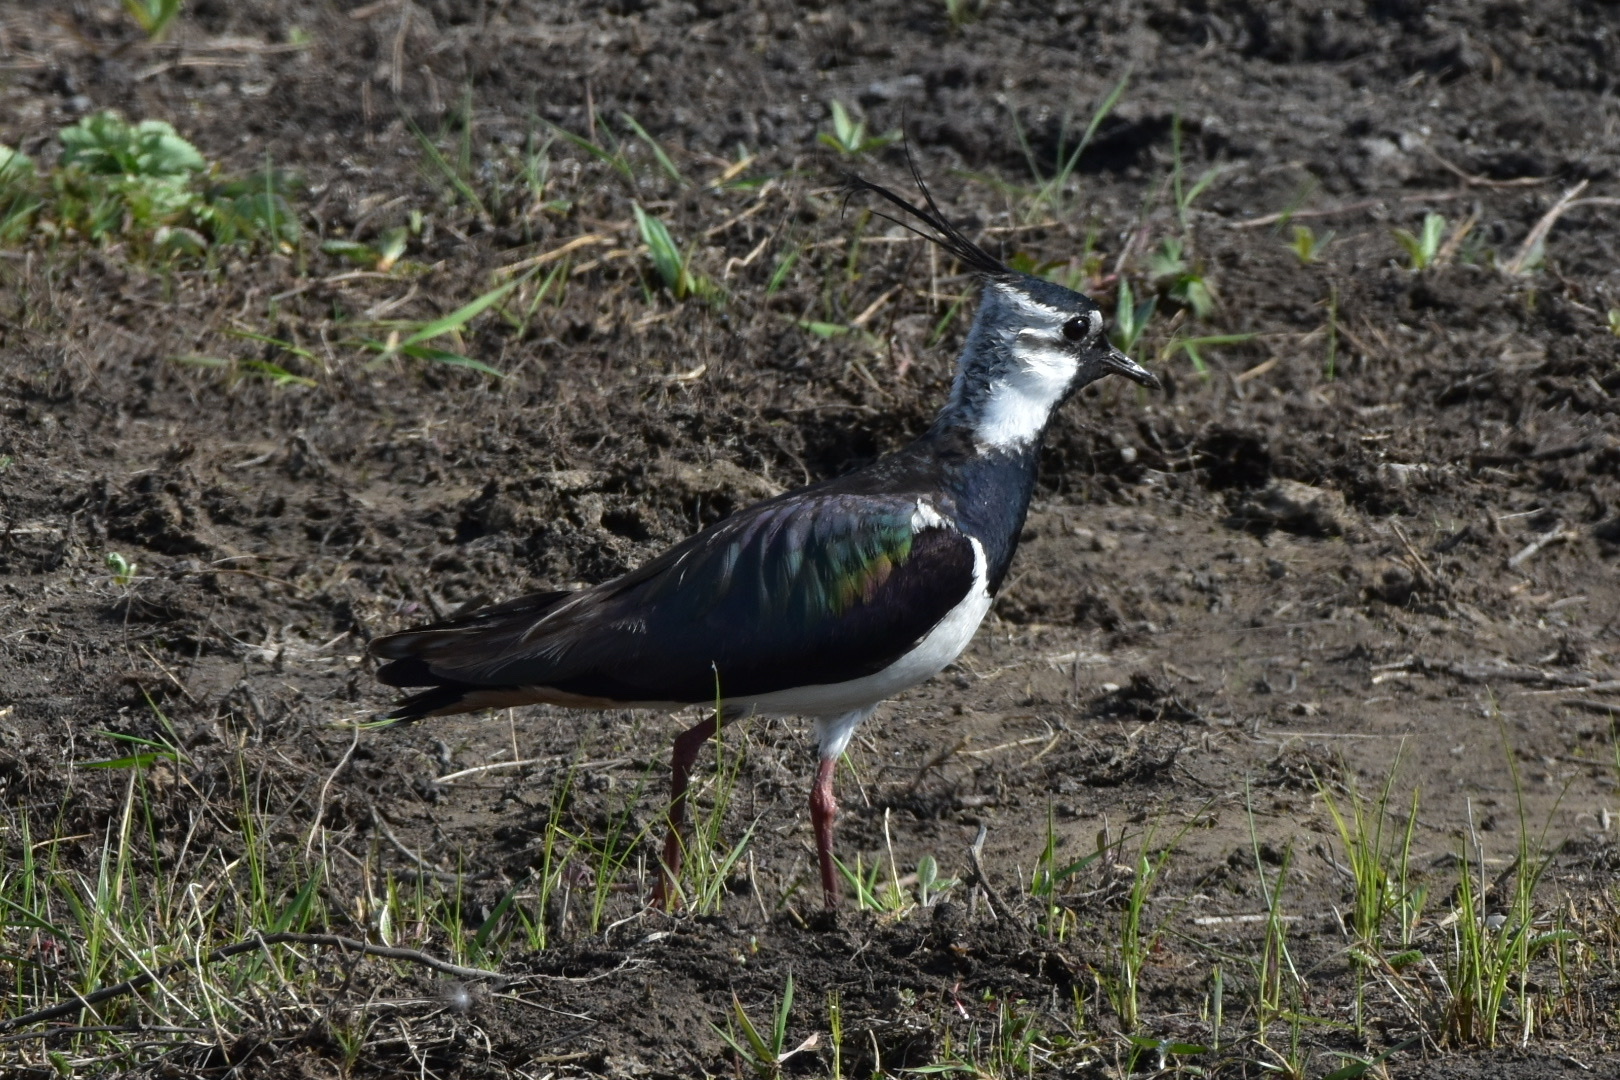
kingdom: Animalia
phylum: Chordata
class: Aves
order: Charadriiformes
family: Charadriidae
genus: Vanellus
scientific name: Vanellus vanellus
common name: Northern lapwing
